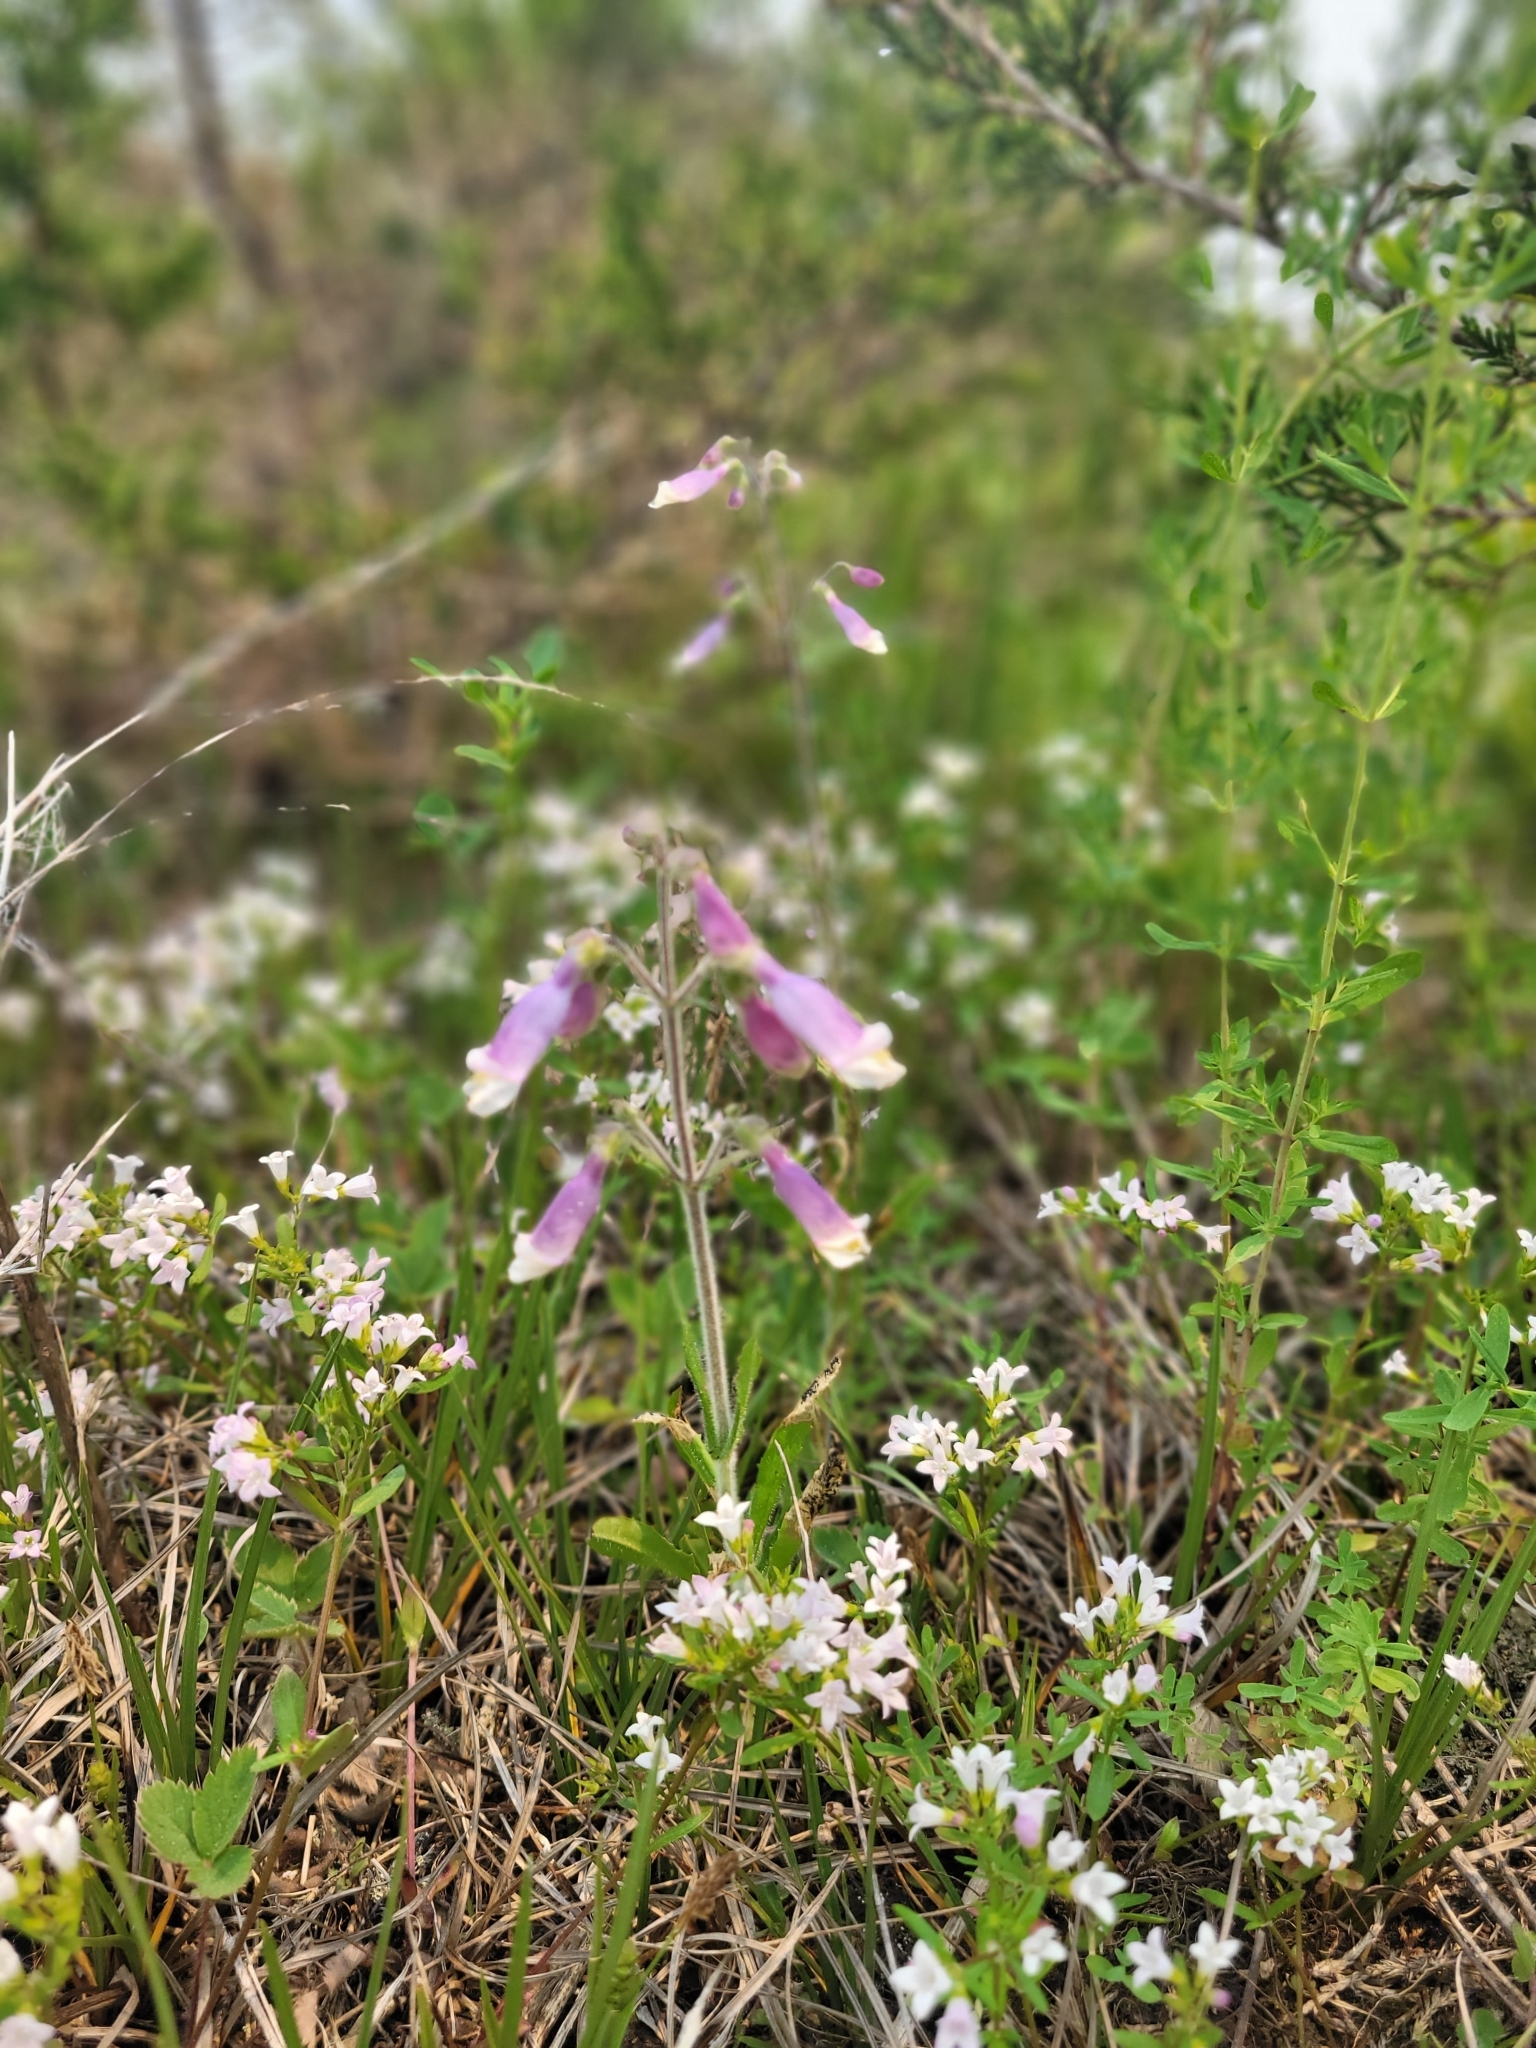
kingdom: Plantae
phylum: Tracheophyta
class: Magnoliopsida
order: Lamiales
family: Plantaginaceae
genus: Penstemon
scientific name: Penstemon hirsutus
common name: Hairy beardtongue
